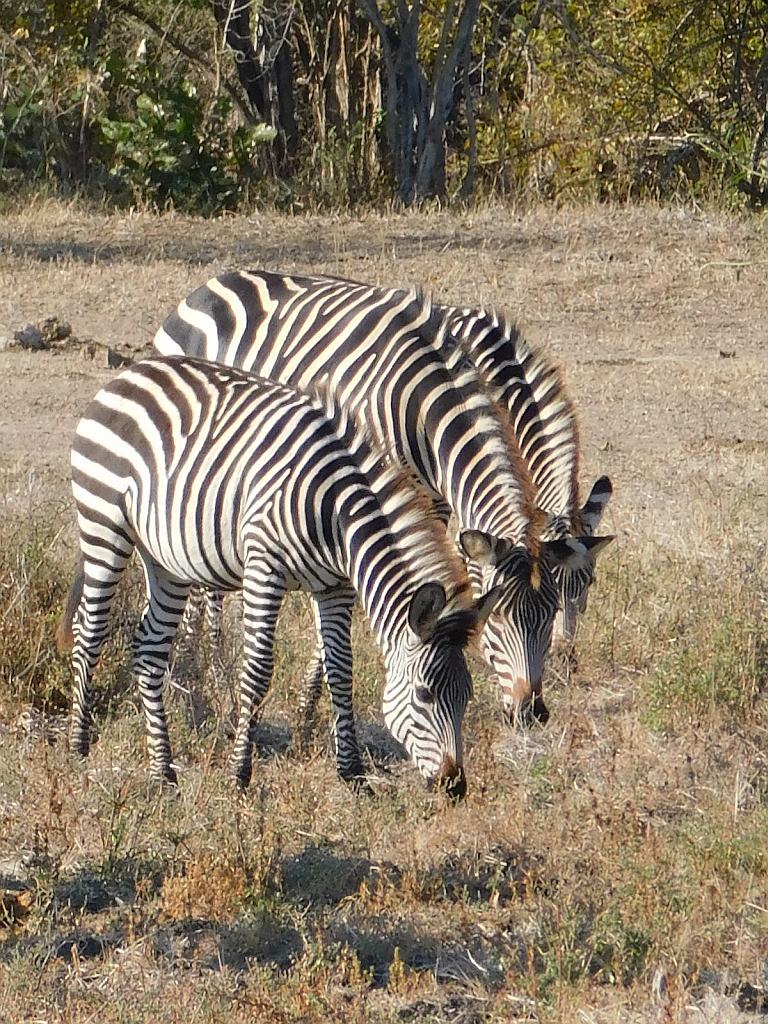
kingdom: Animalia
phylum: Chordata
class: Mammalia
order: Perissodactyla
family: Equidae
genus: Equus
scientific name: Equus quagga
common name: Plains zebra
